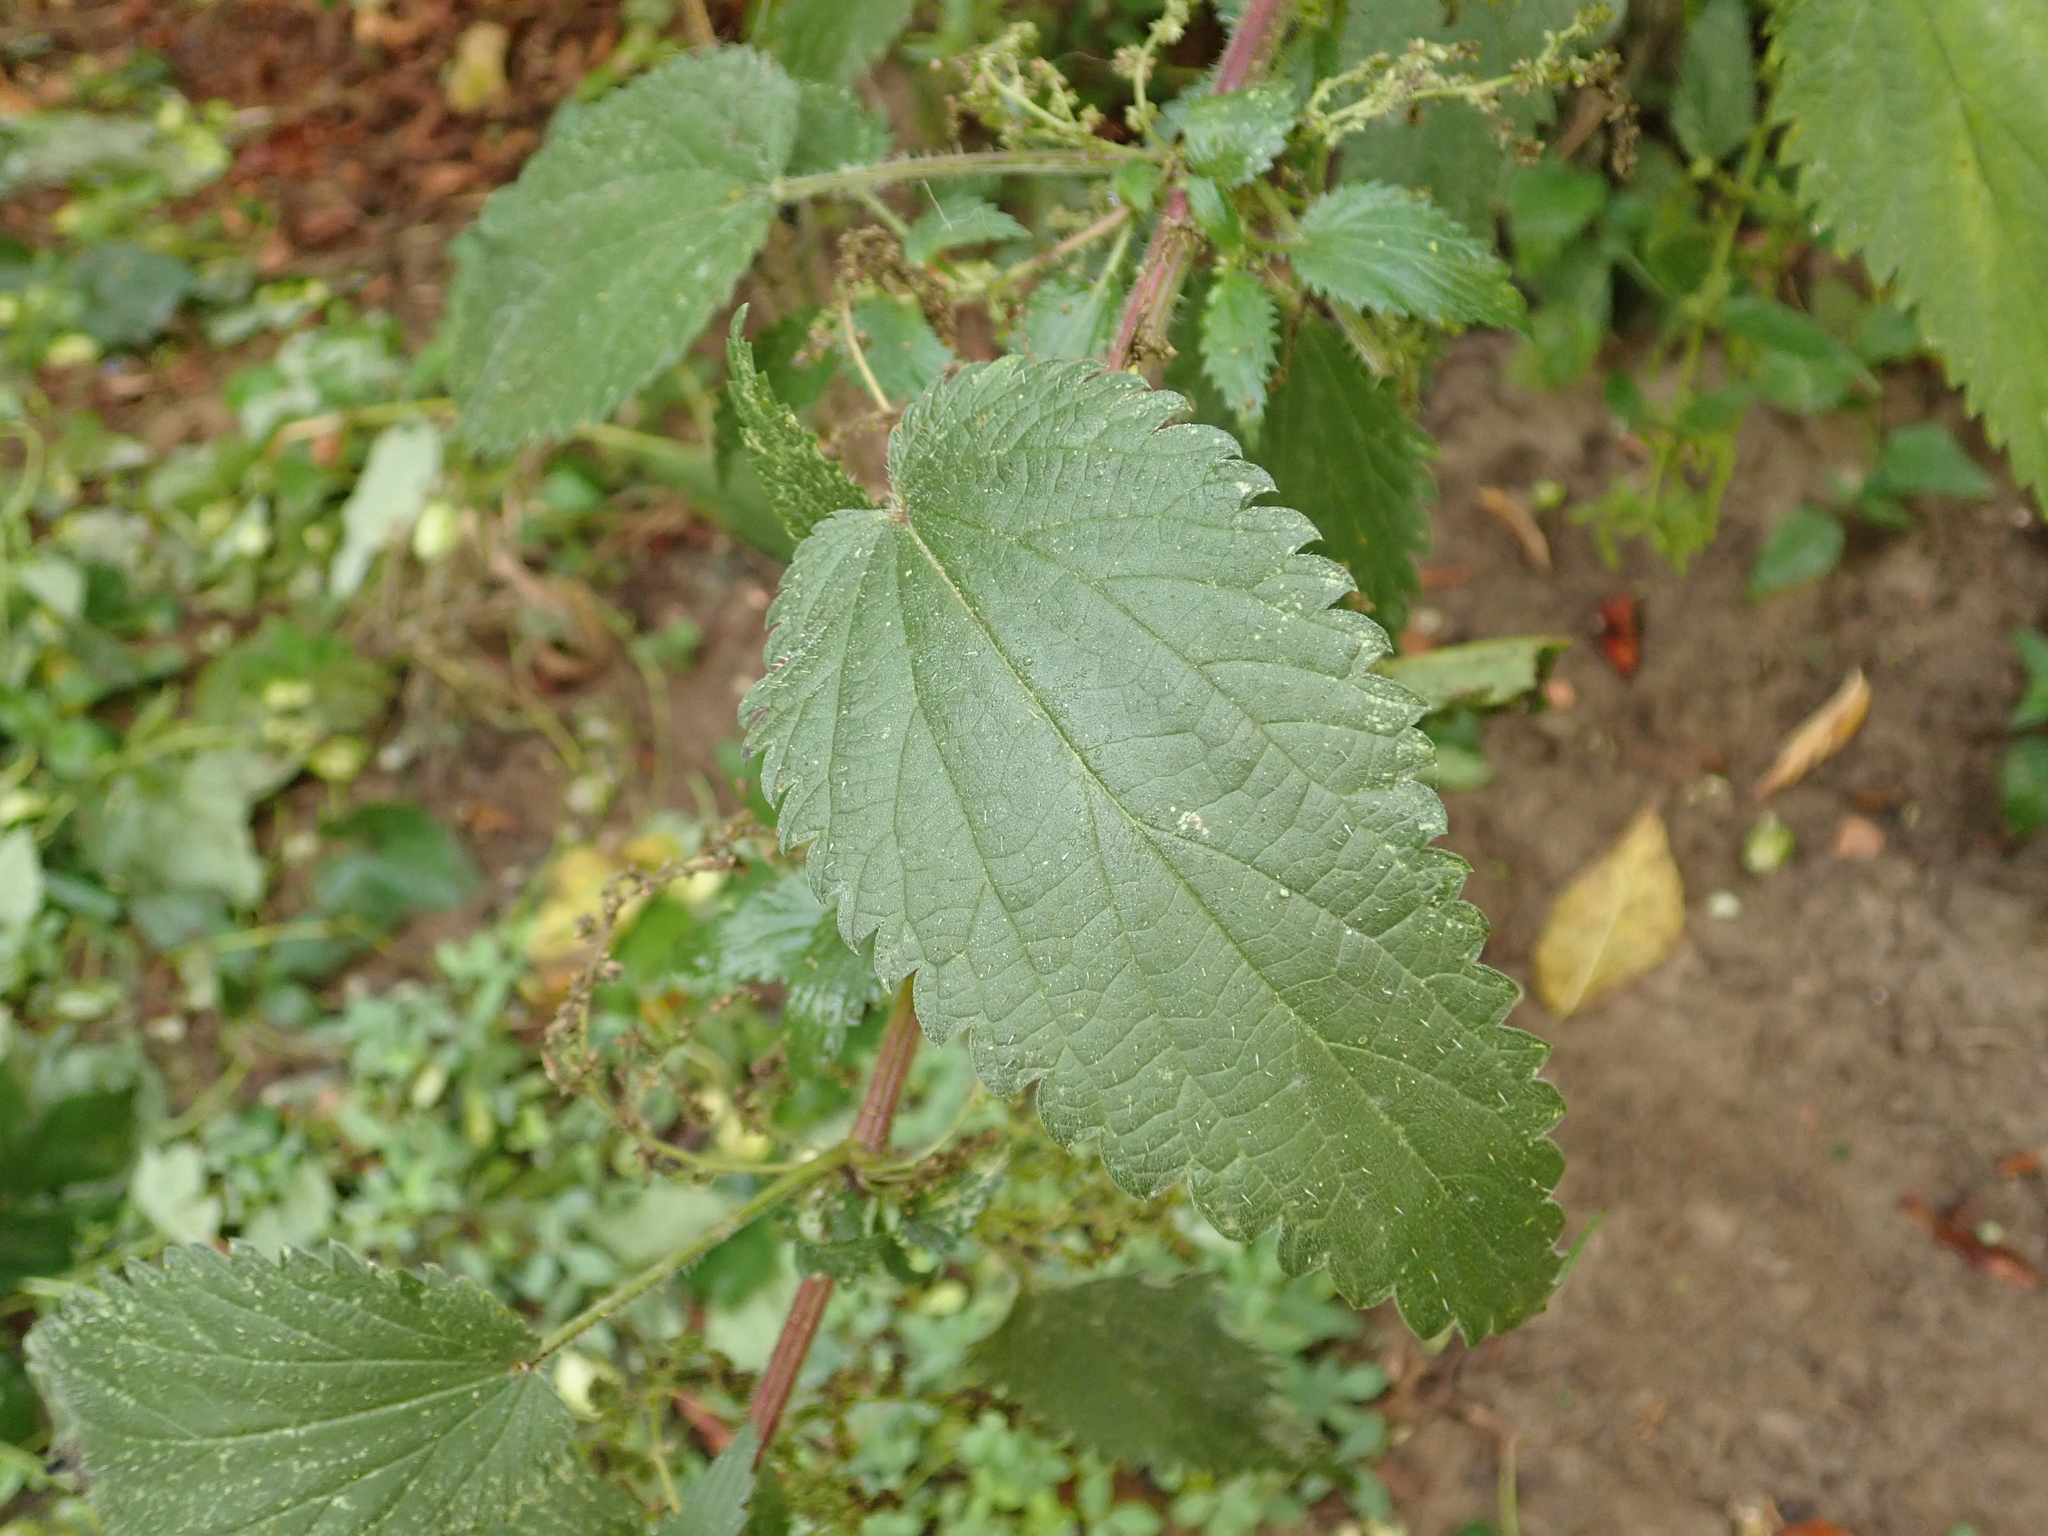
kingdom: Plantae
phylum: Tracheophyta
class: Magnoliopsida
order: Rosales
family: Urticaceae
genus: Urtica
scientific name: Urtica dioica
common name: Common nettle
